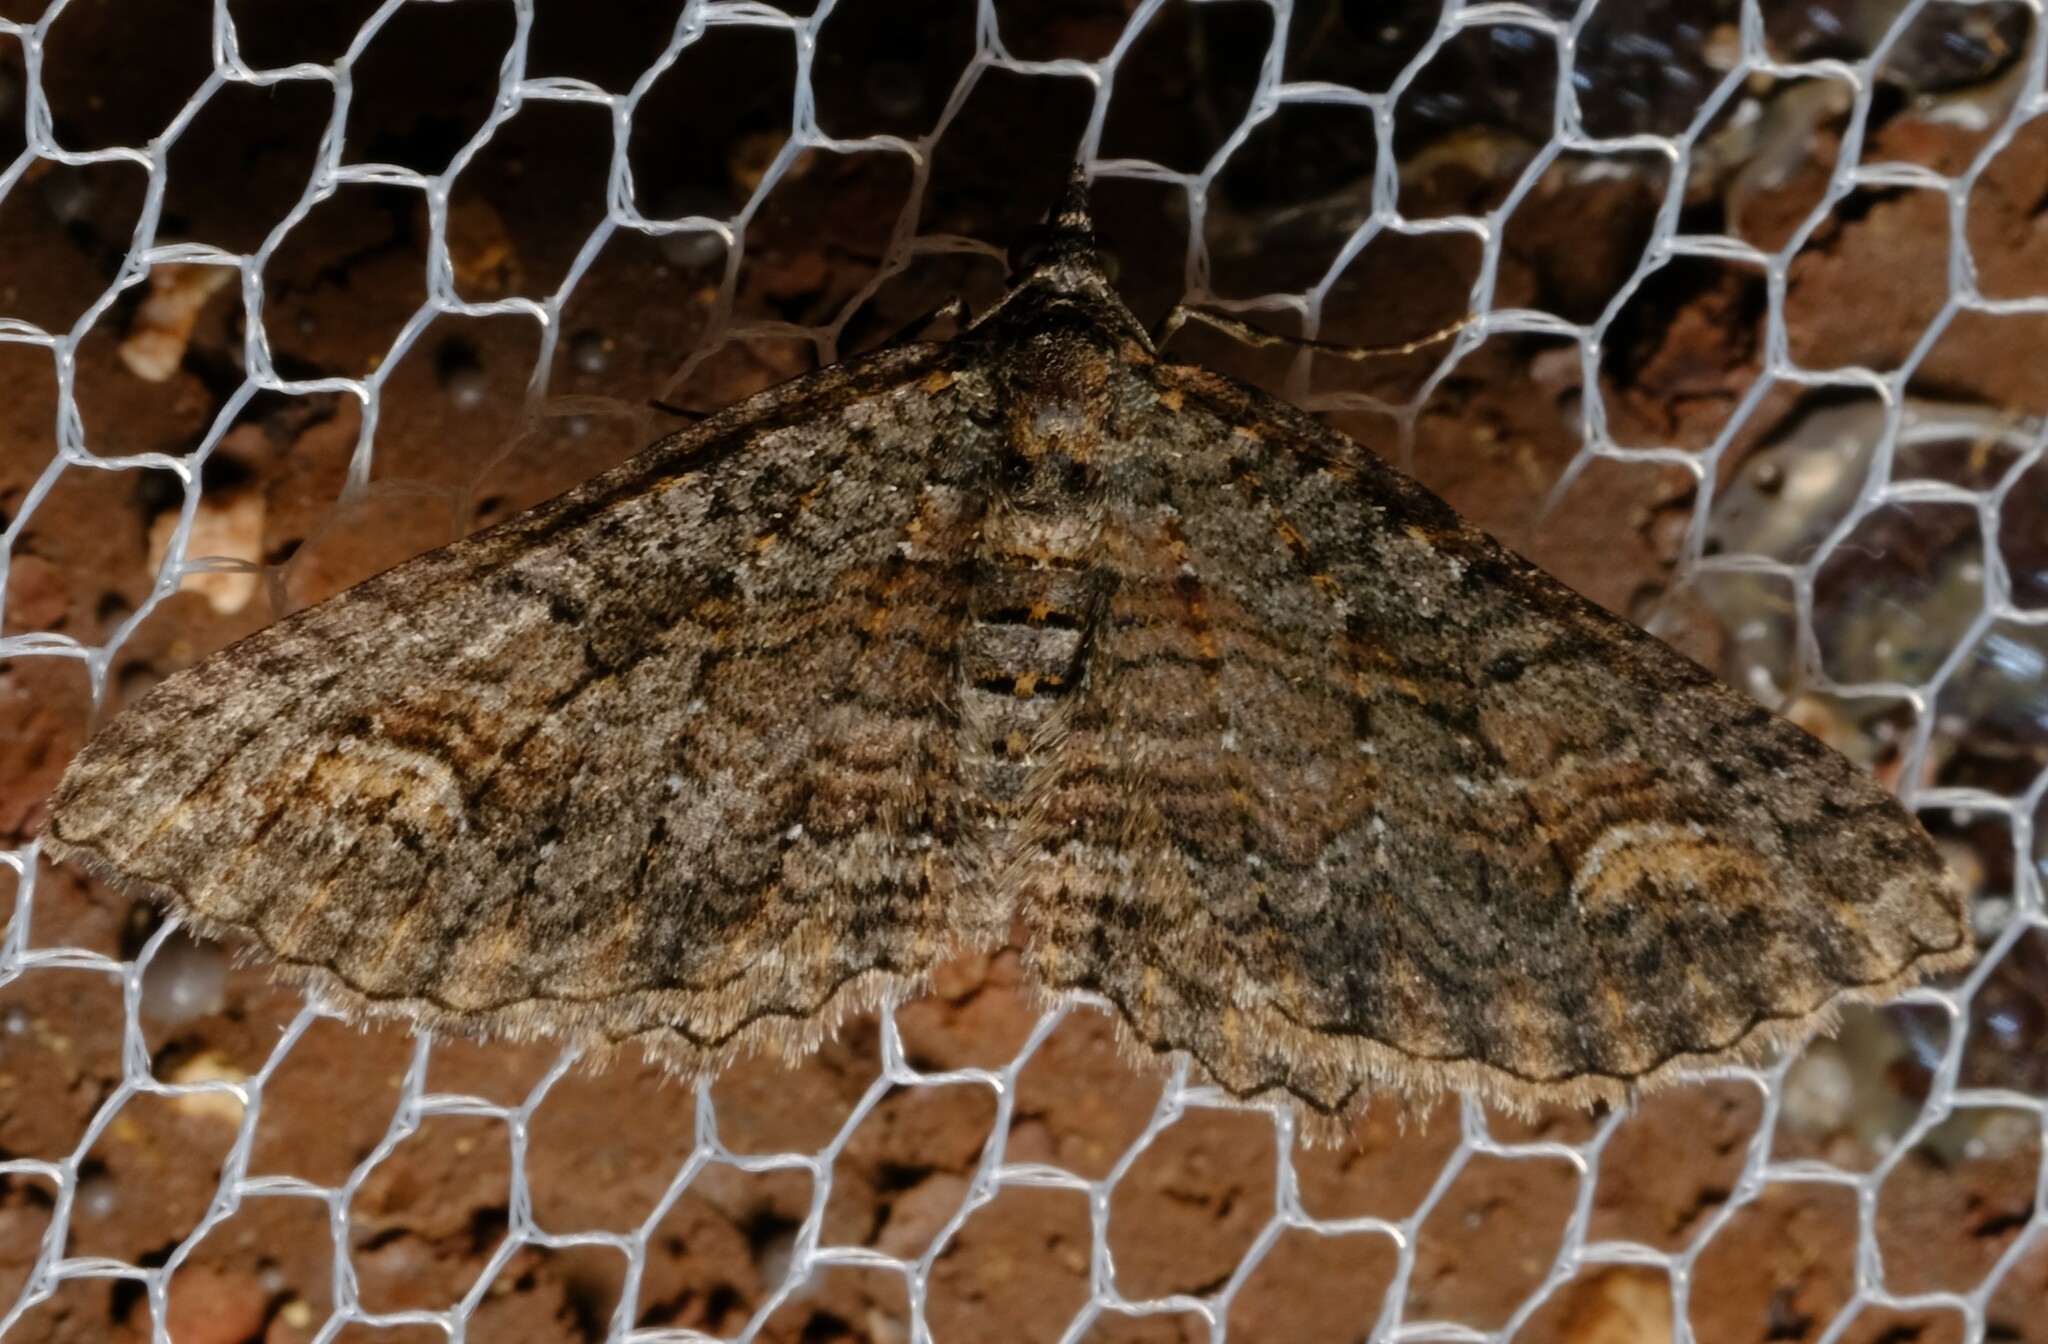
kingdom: Animalia
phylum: Arthropoda
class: Insecta
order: Lepidoptera
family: Geometridae
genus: Eupithecia
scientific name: Eupithecia Eucymatoge scotodes
